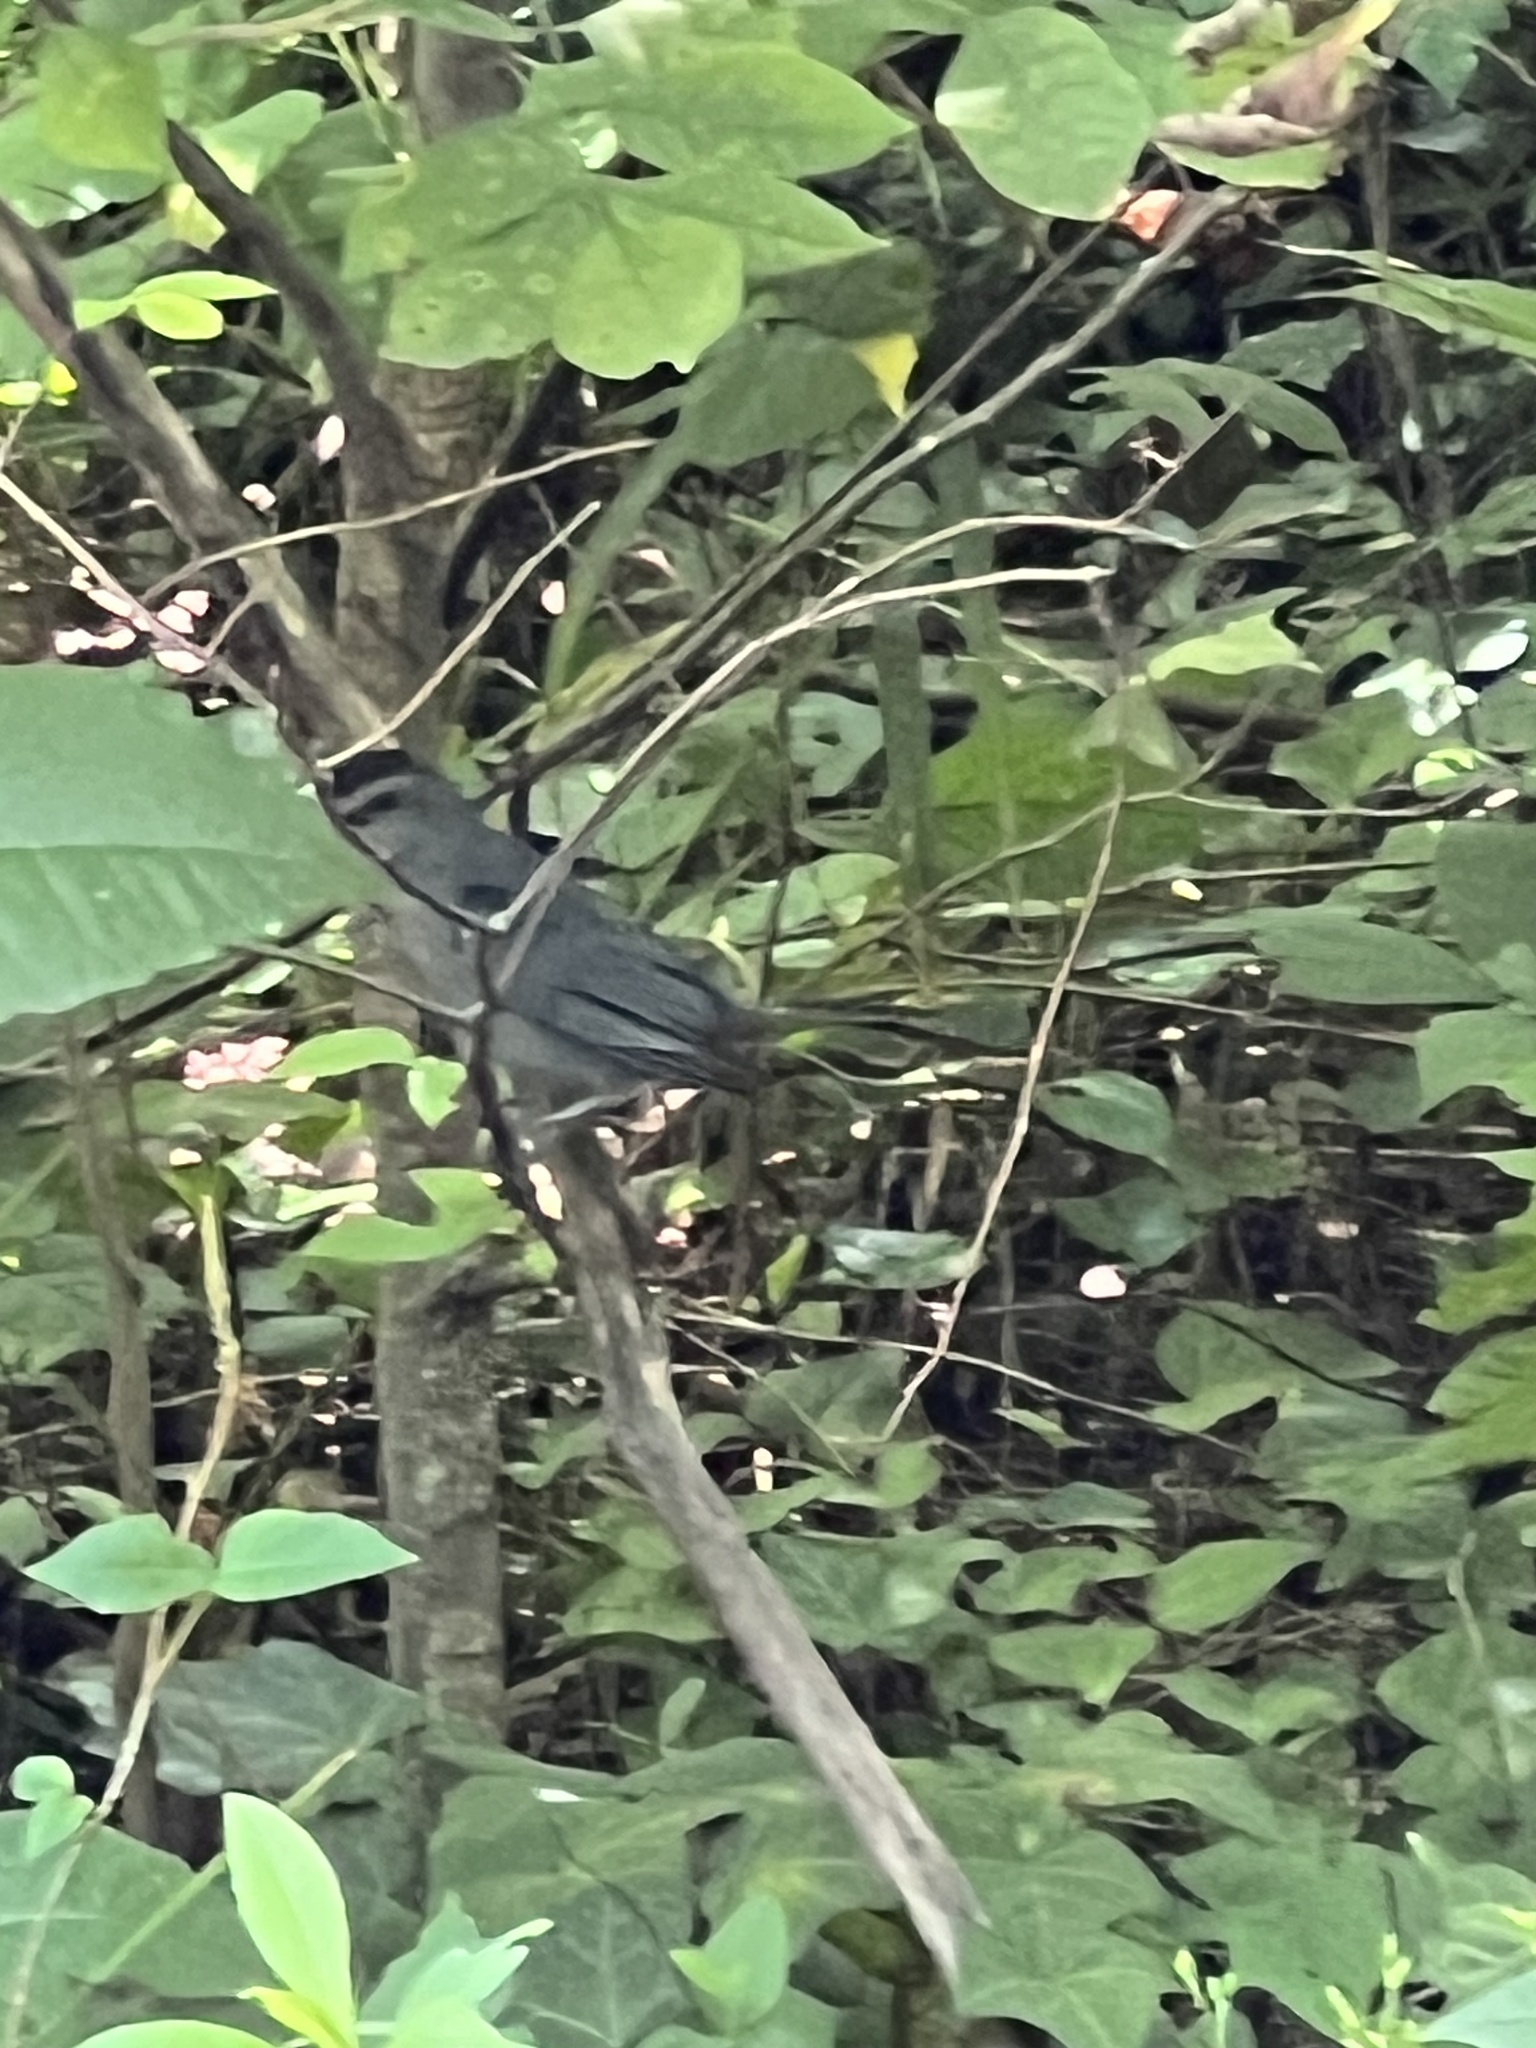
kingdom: Animalia
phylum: Chordata
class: Aves
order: Passeriformes
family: Mimidae
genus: Dumetella
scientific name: Dumetella carolinensis
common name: Gray catbird
